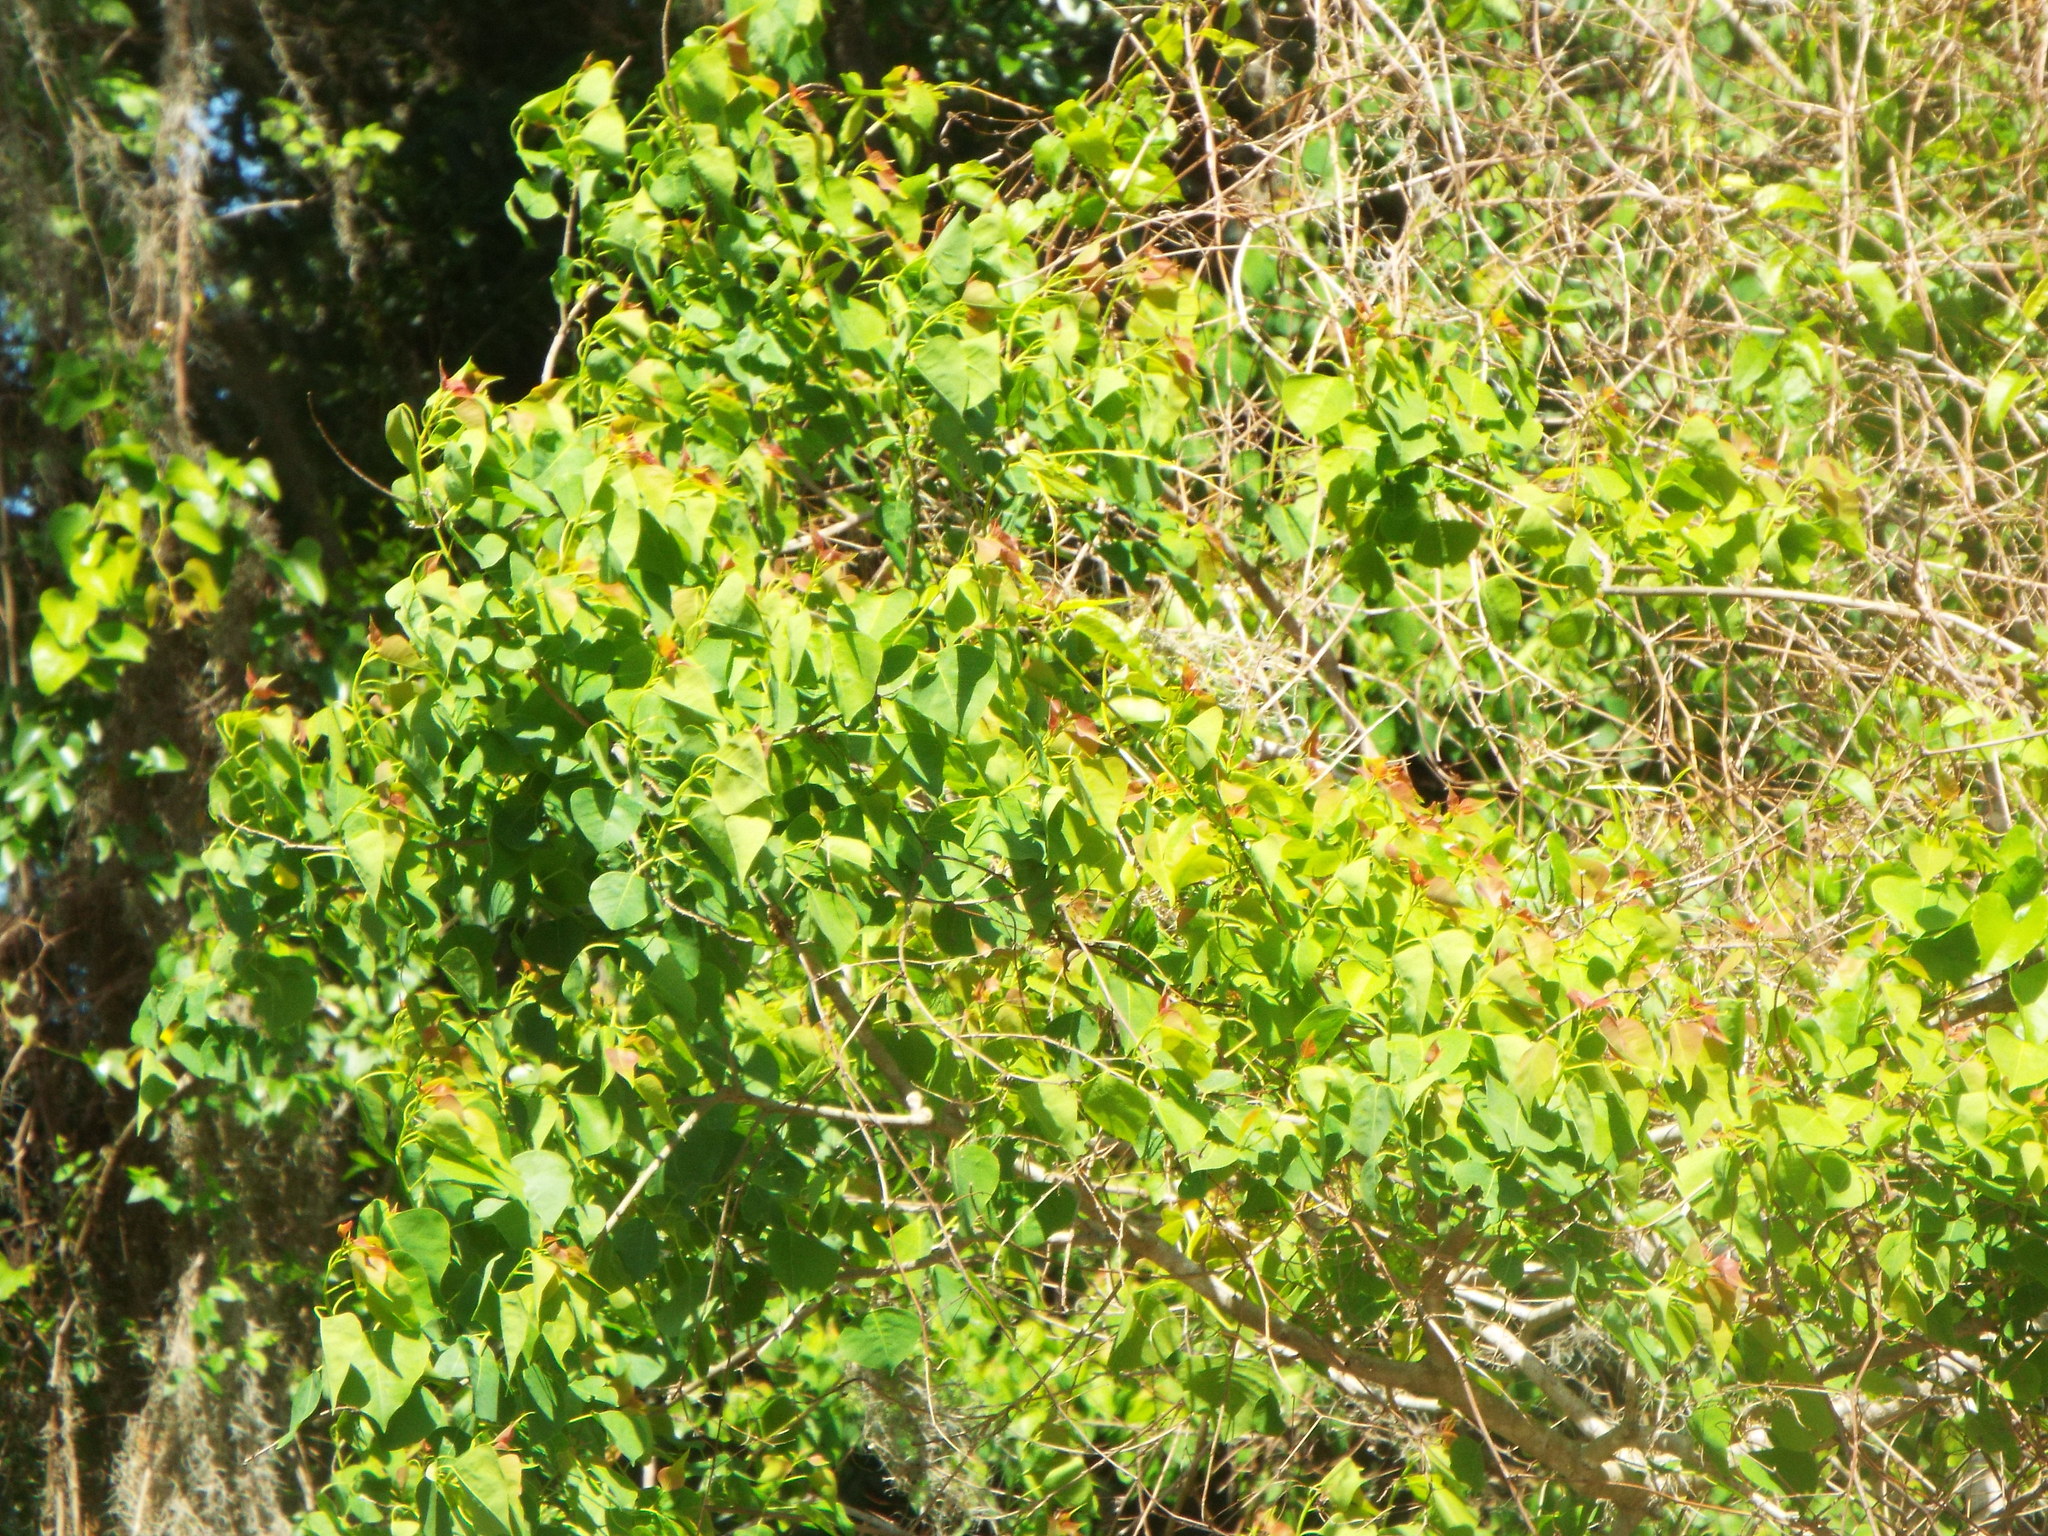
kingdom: Plantae
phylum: Tracheophyta
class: Magnoliopsida
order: Malpighiales
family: Euphorbiaceae
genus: Triadica
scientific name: Triadica sebifera
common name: Chinese tallow
